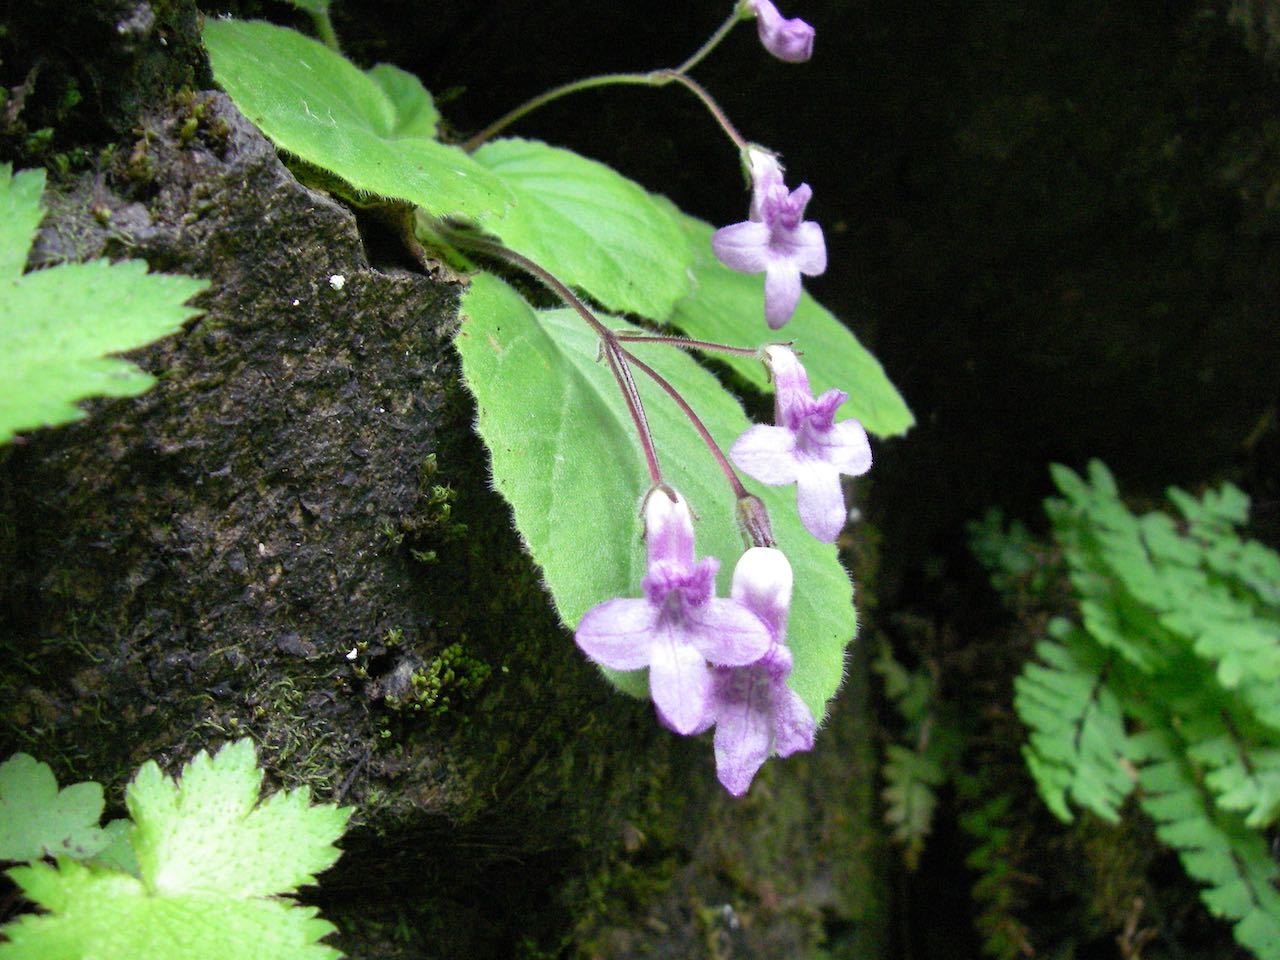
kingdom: Plantae
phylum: Tracheophyta
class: Magnoliopsida
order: Lamiales
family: Gesneriaceae
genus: Oreocharis
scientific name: Oreocharis primuloides
